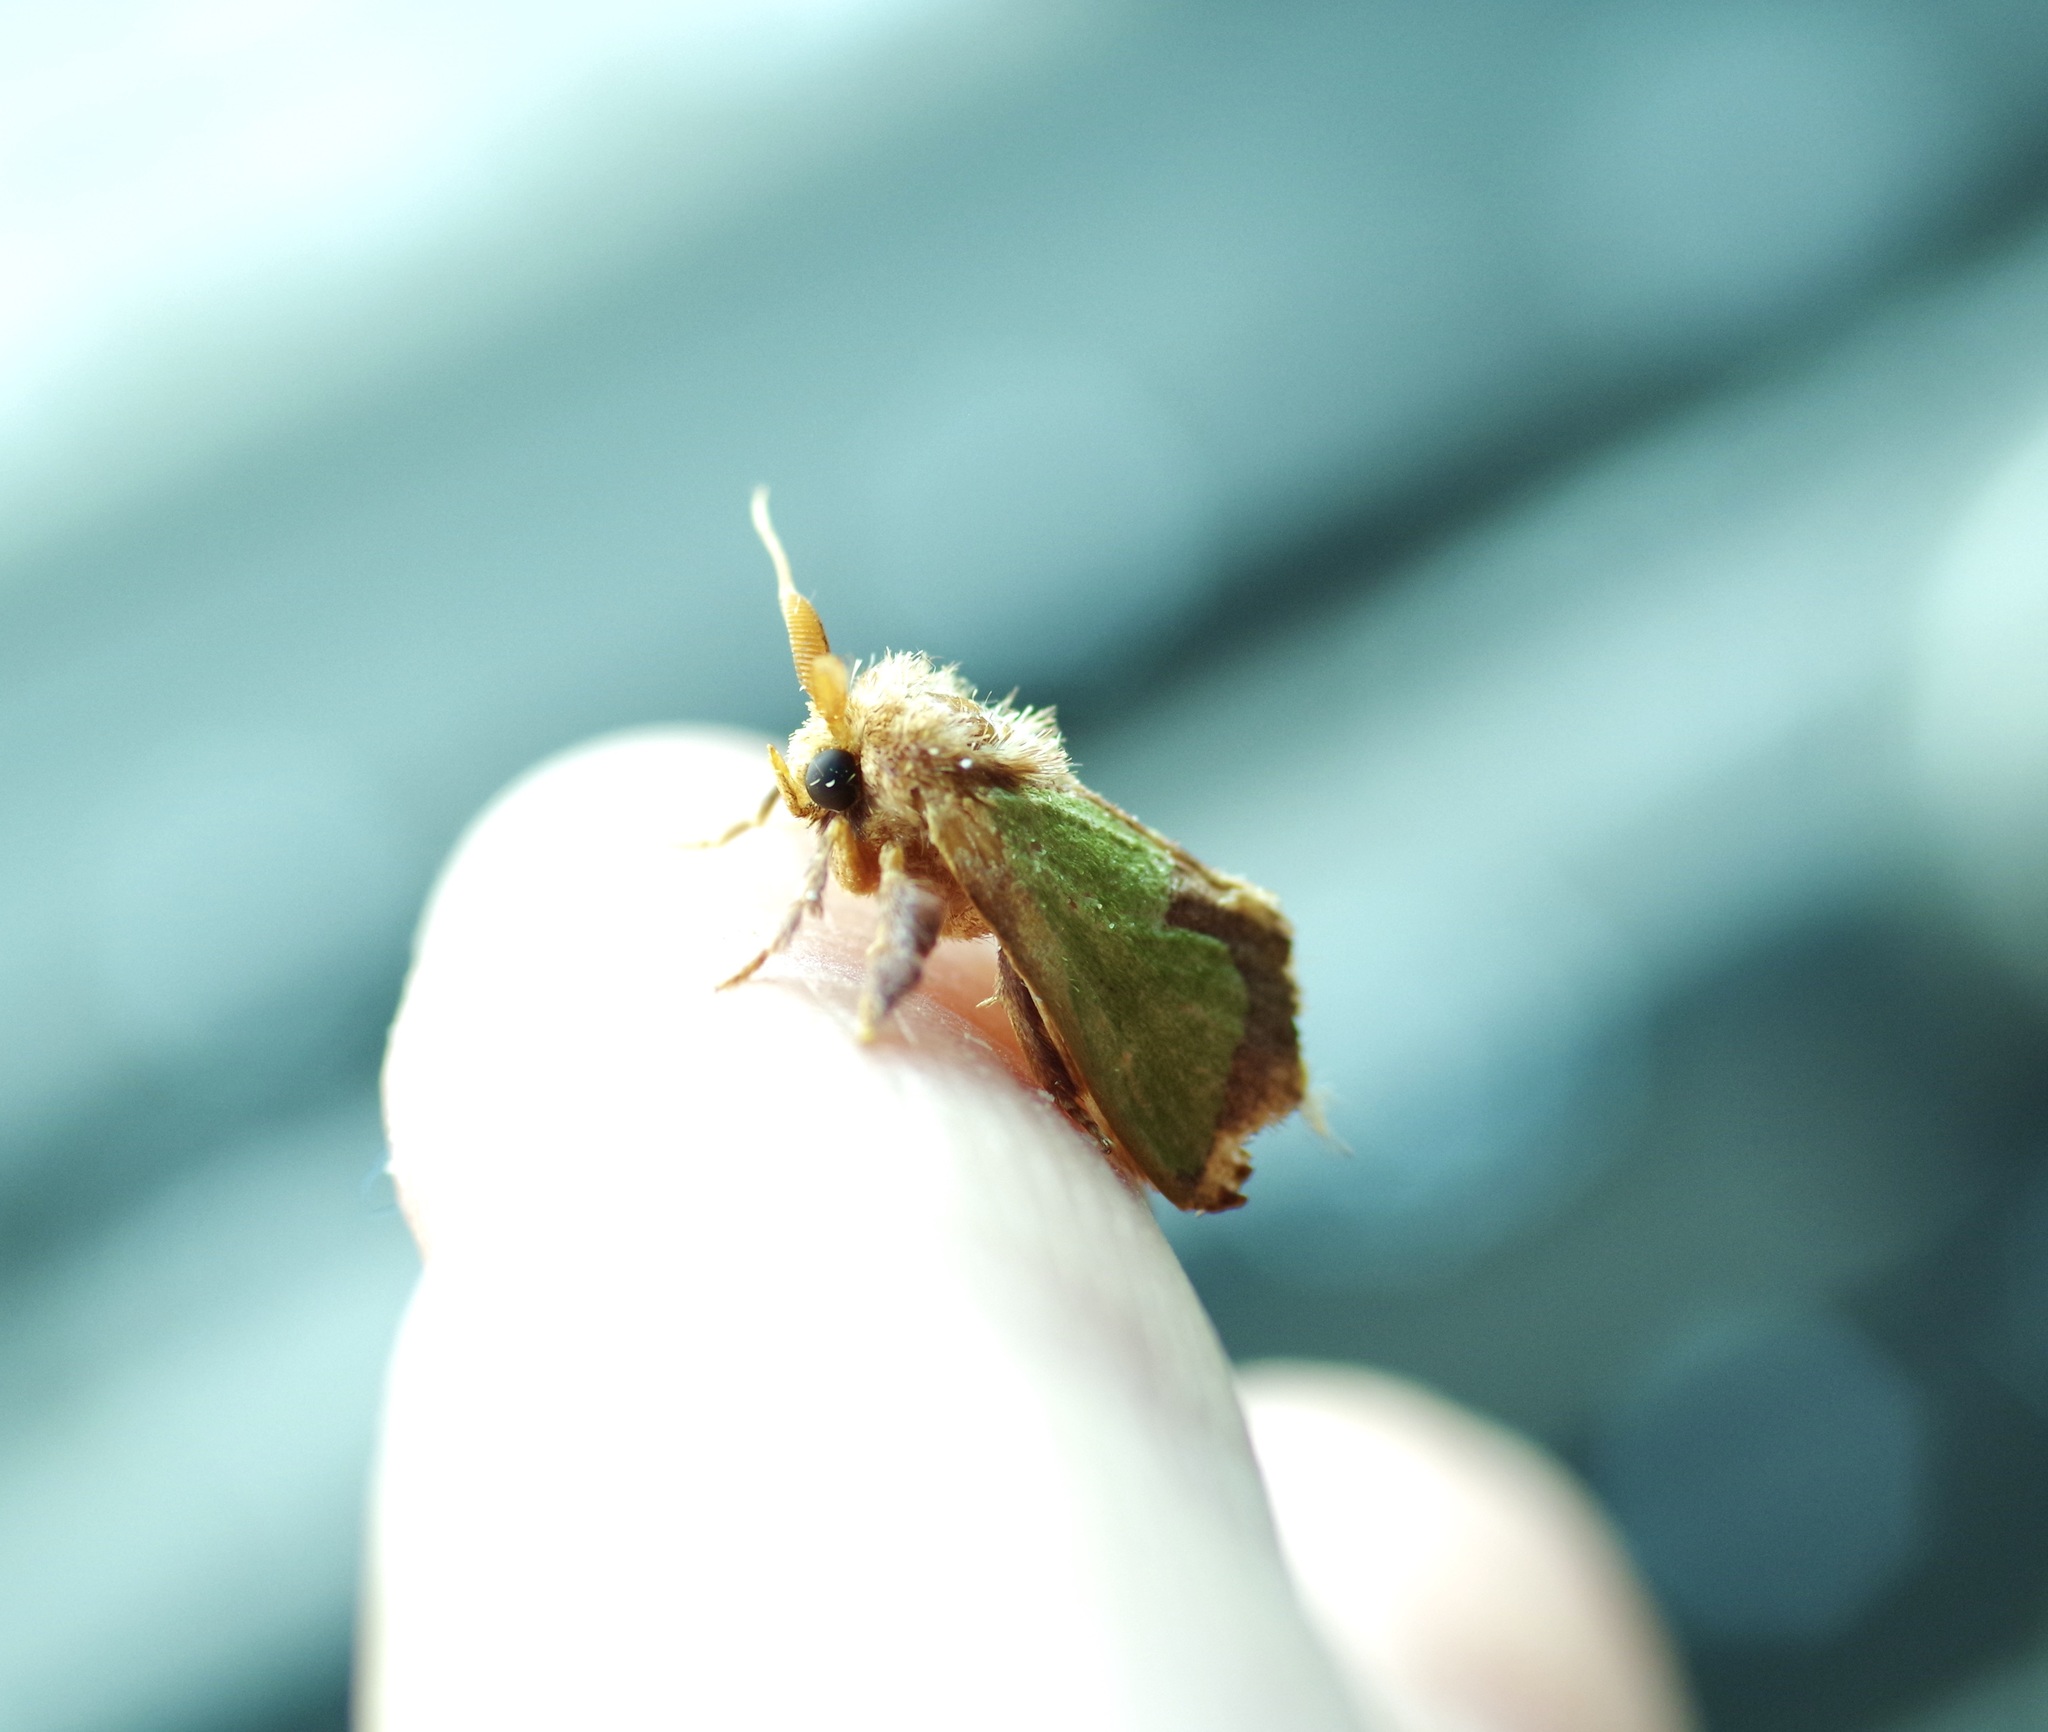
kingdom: Animalia
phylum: Arthropoda
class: Insecta
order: Lepidoptera
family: Limacodidae
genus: Euclea
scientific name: Euclea incisa
